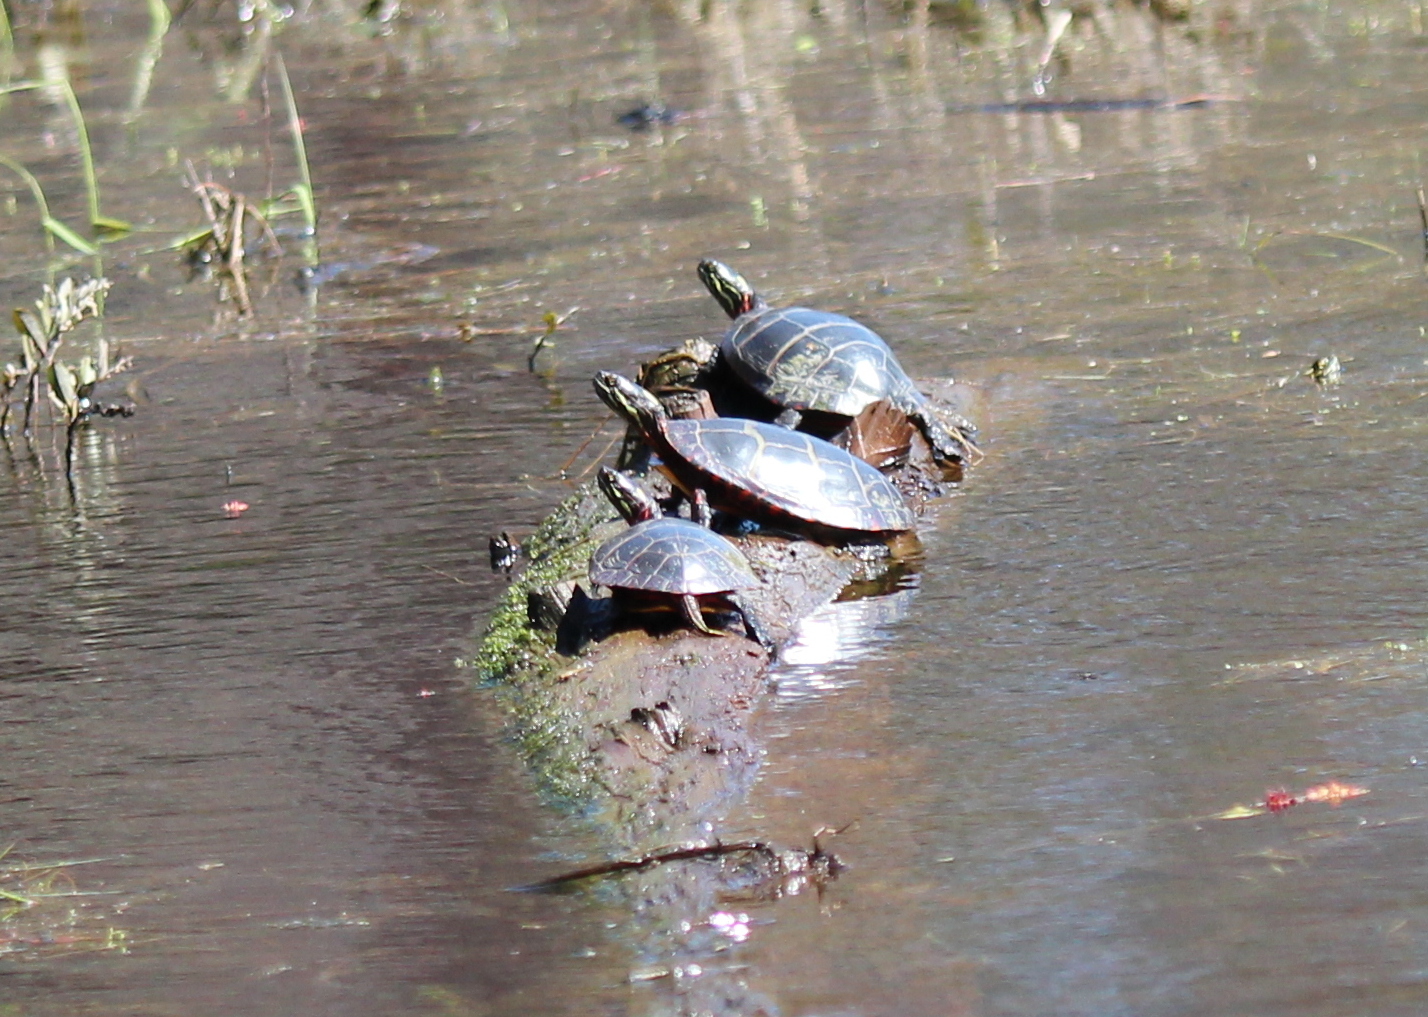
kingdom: Animalia
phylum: Chordata
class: Testudines
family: Emydidae
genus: Chrysemys
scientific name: Chrysemys picta
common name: Painted turtle
